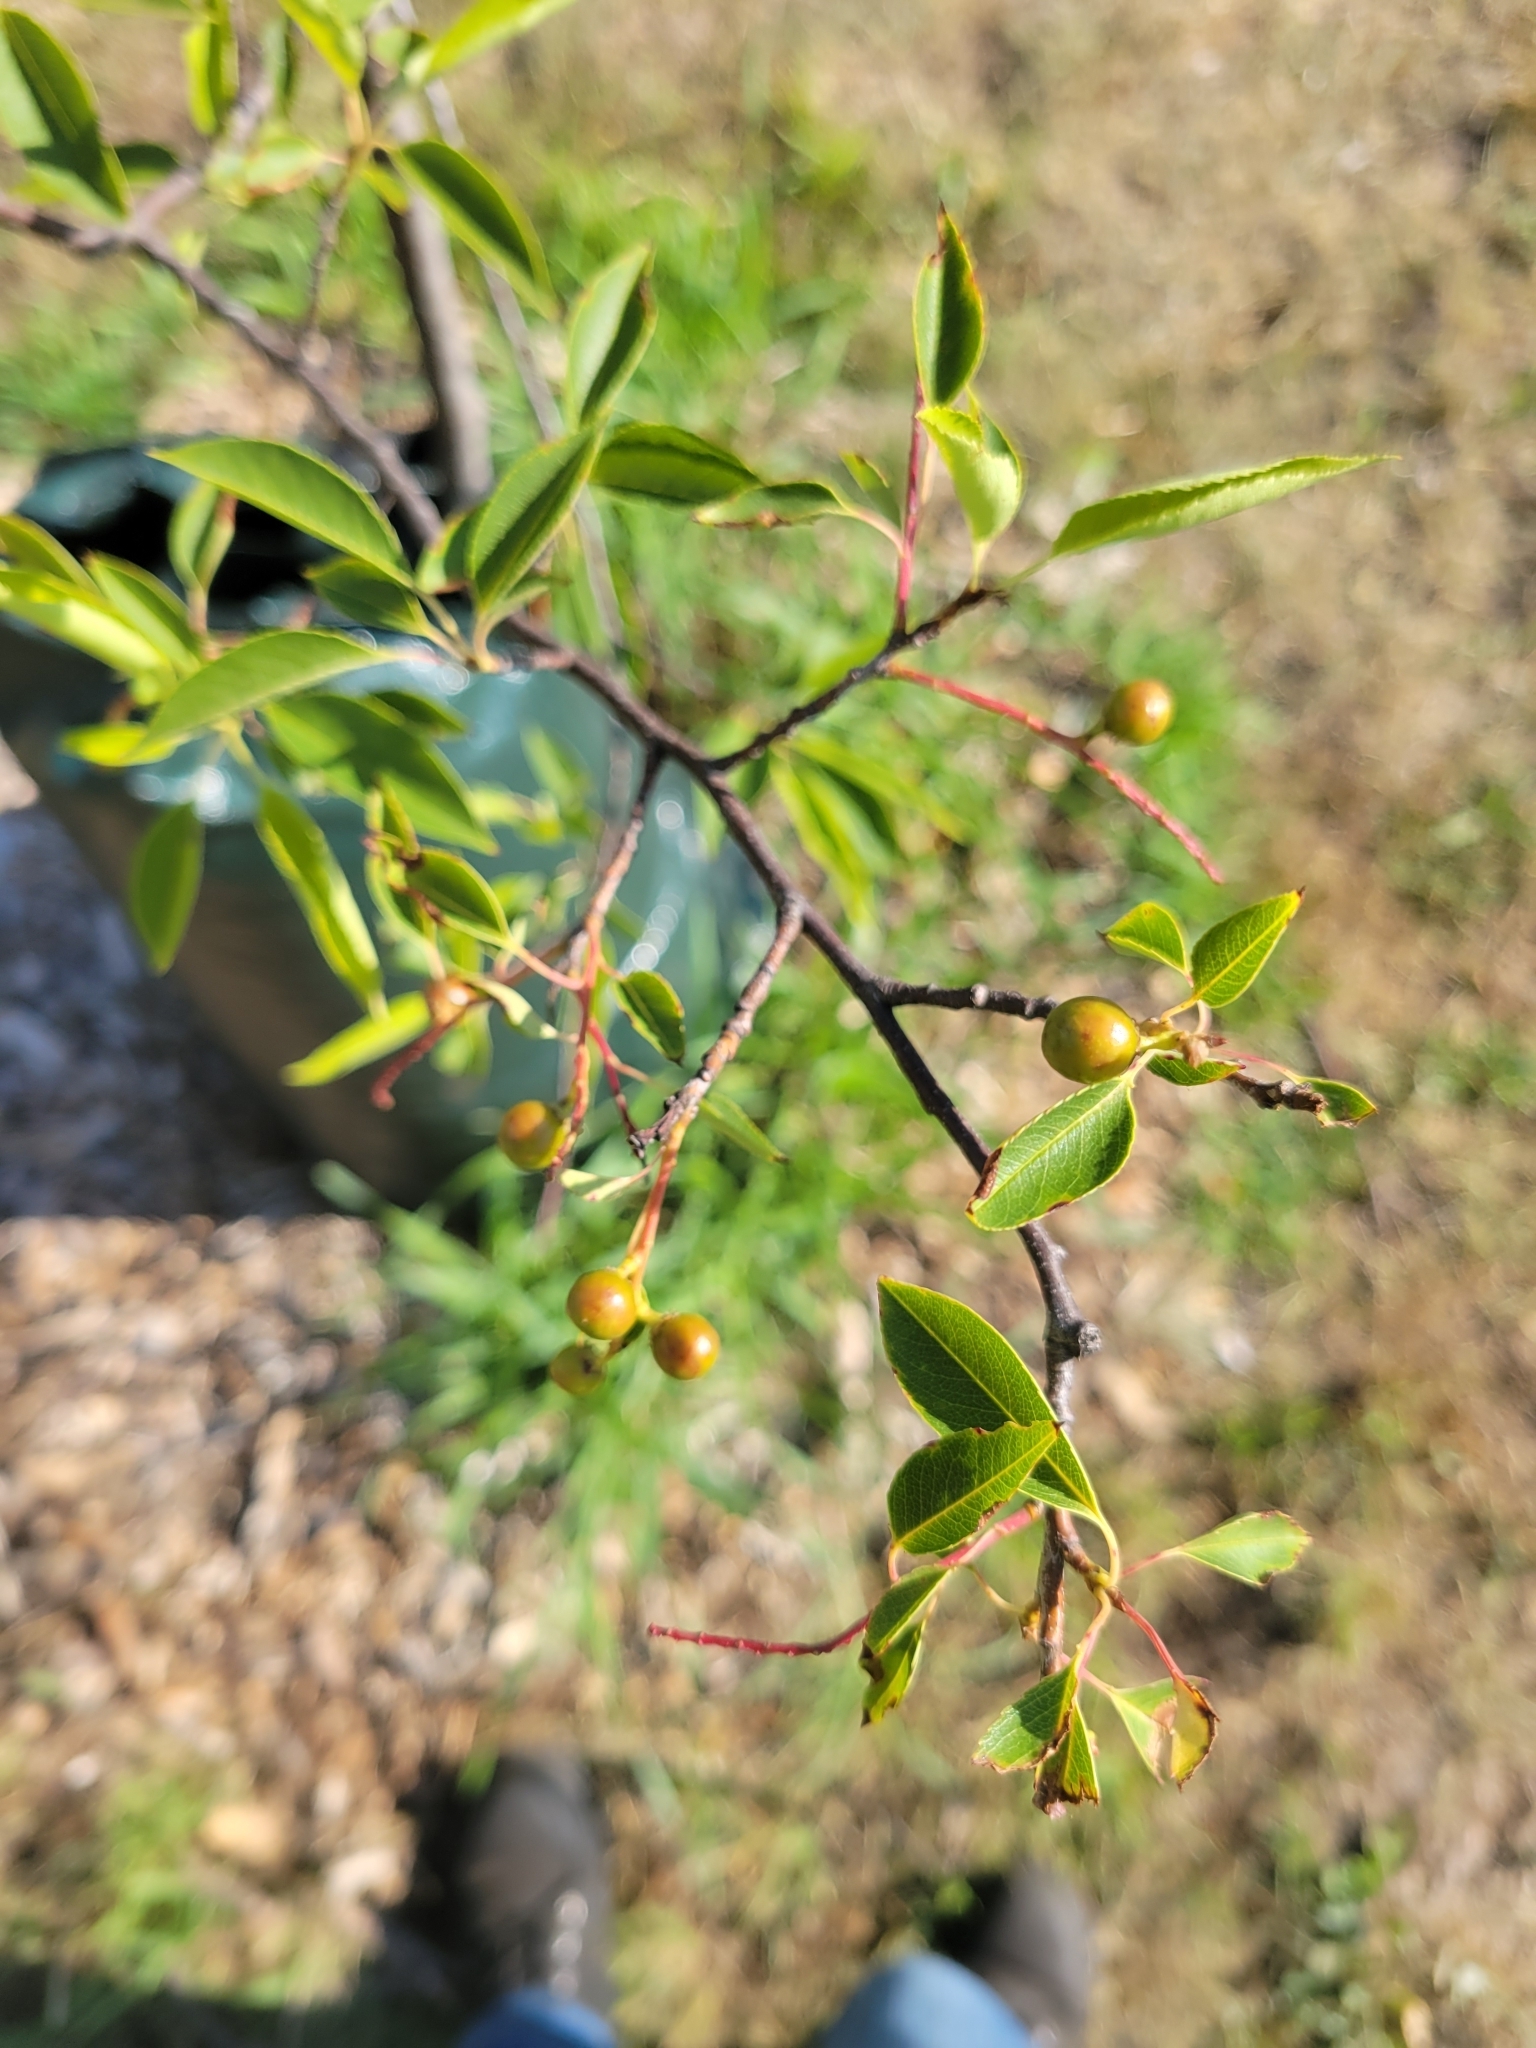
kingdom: Plantae
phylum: Tracheophyta
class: Magnoliopsida
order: Rosales
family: Rosaceae
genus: Prunus
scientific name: Prunus serotina
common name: Black cherry
